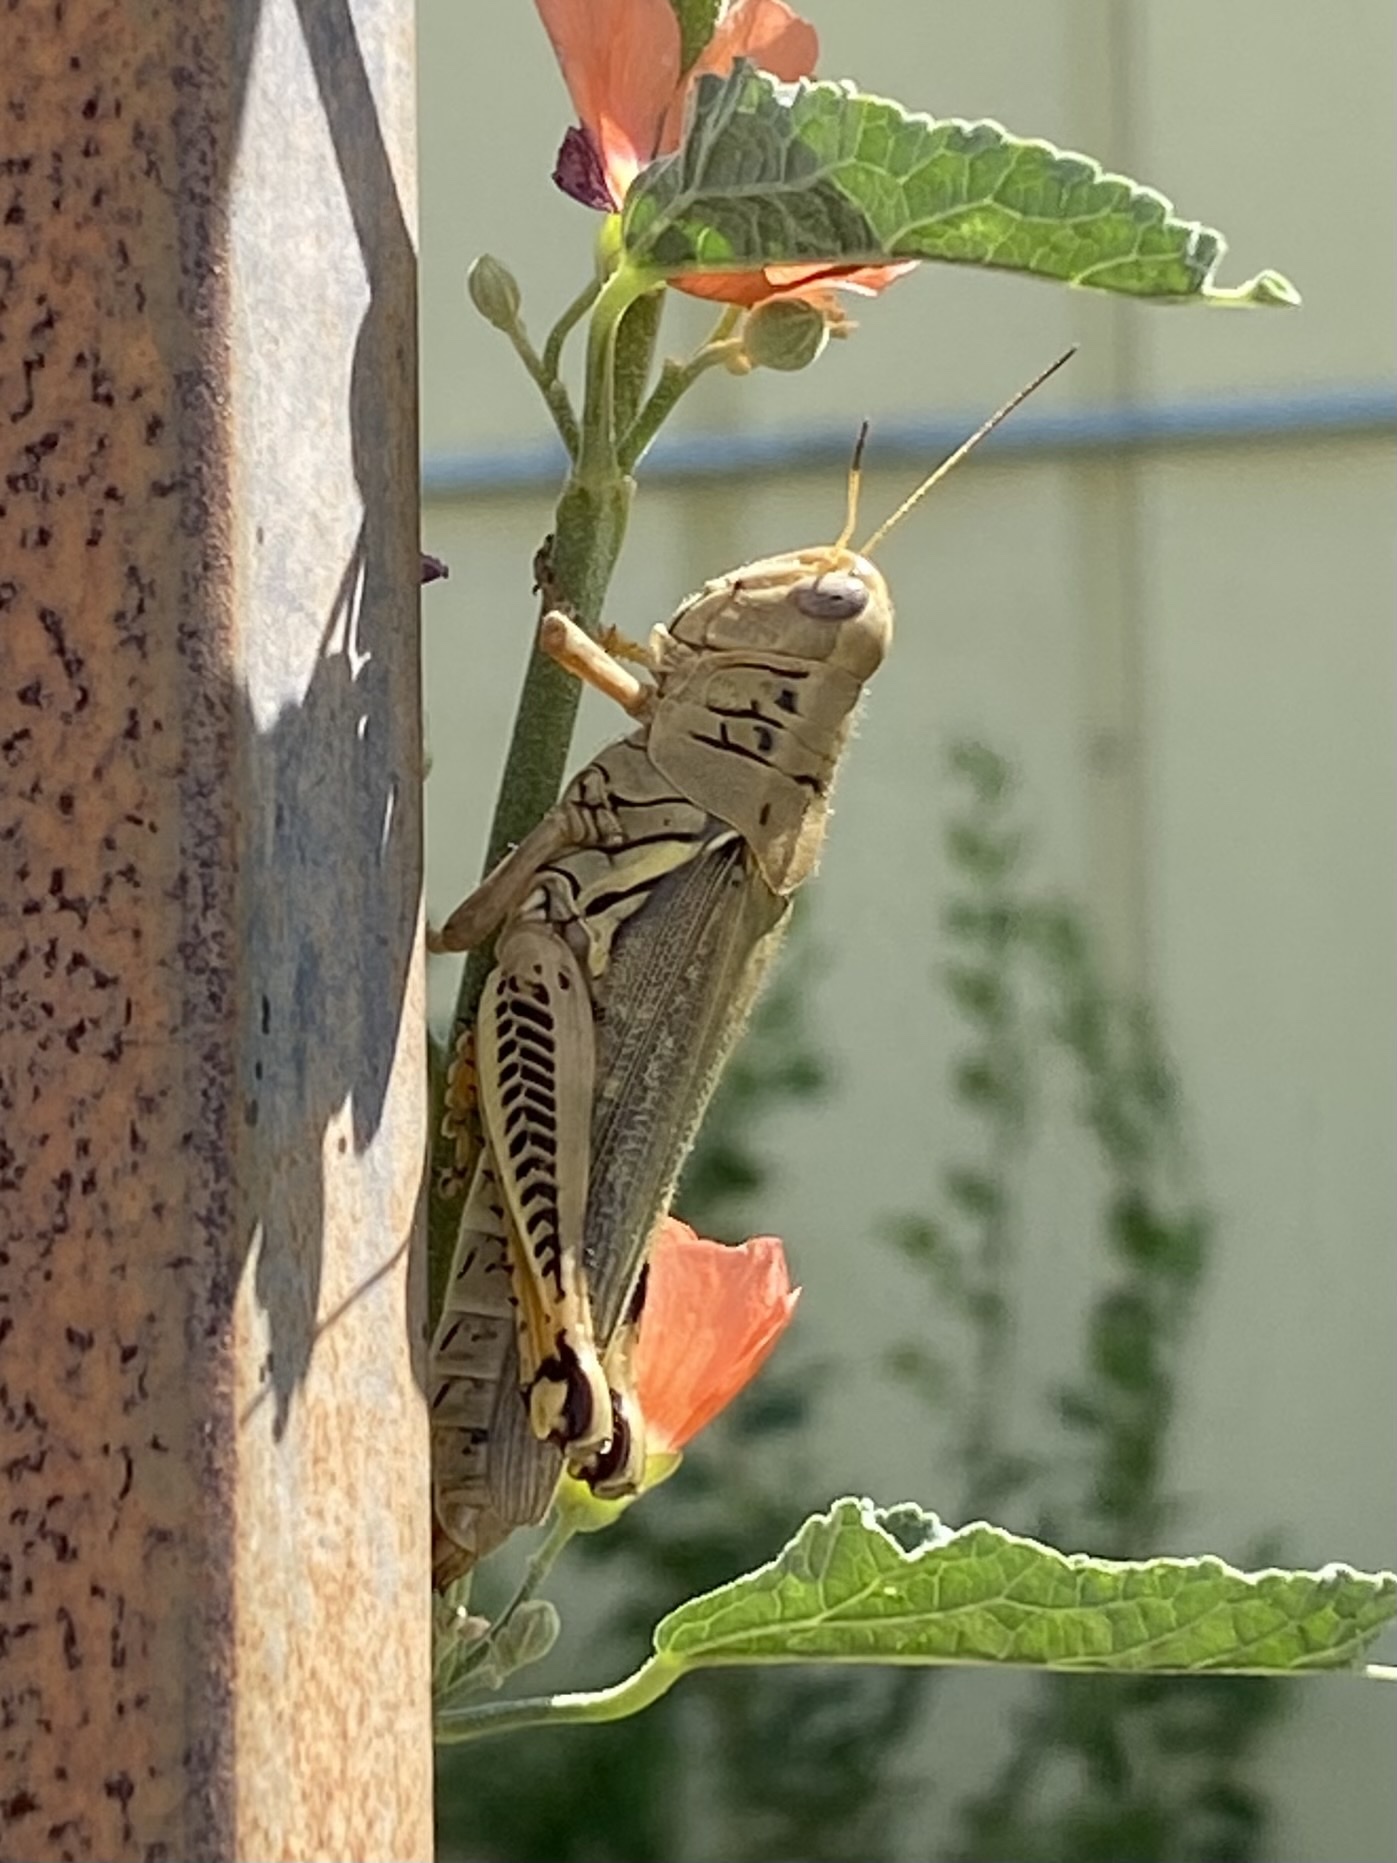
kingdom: Animalia
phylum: Arthropoda
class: Insecta
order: Orthoptera
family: Acrididae
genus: Melanoplus
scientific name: Melanoplus differentialis
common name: Differential grasshopper
